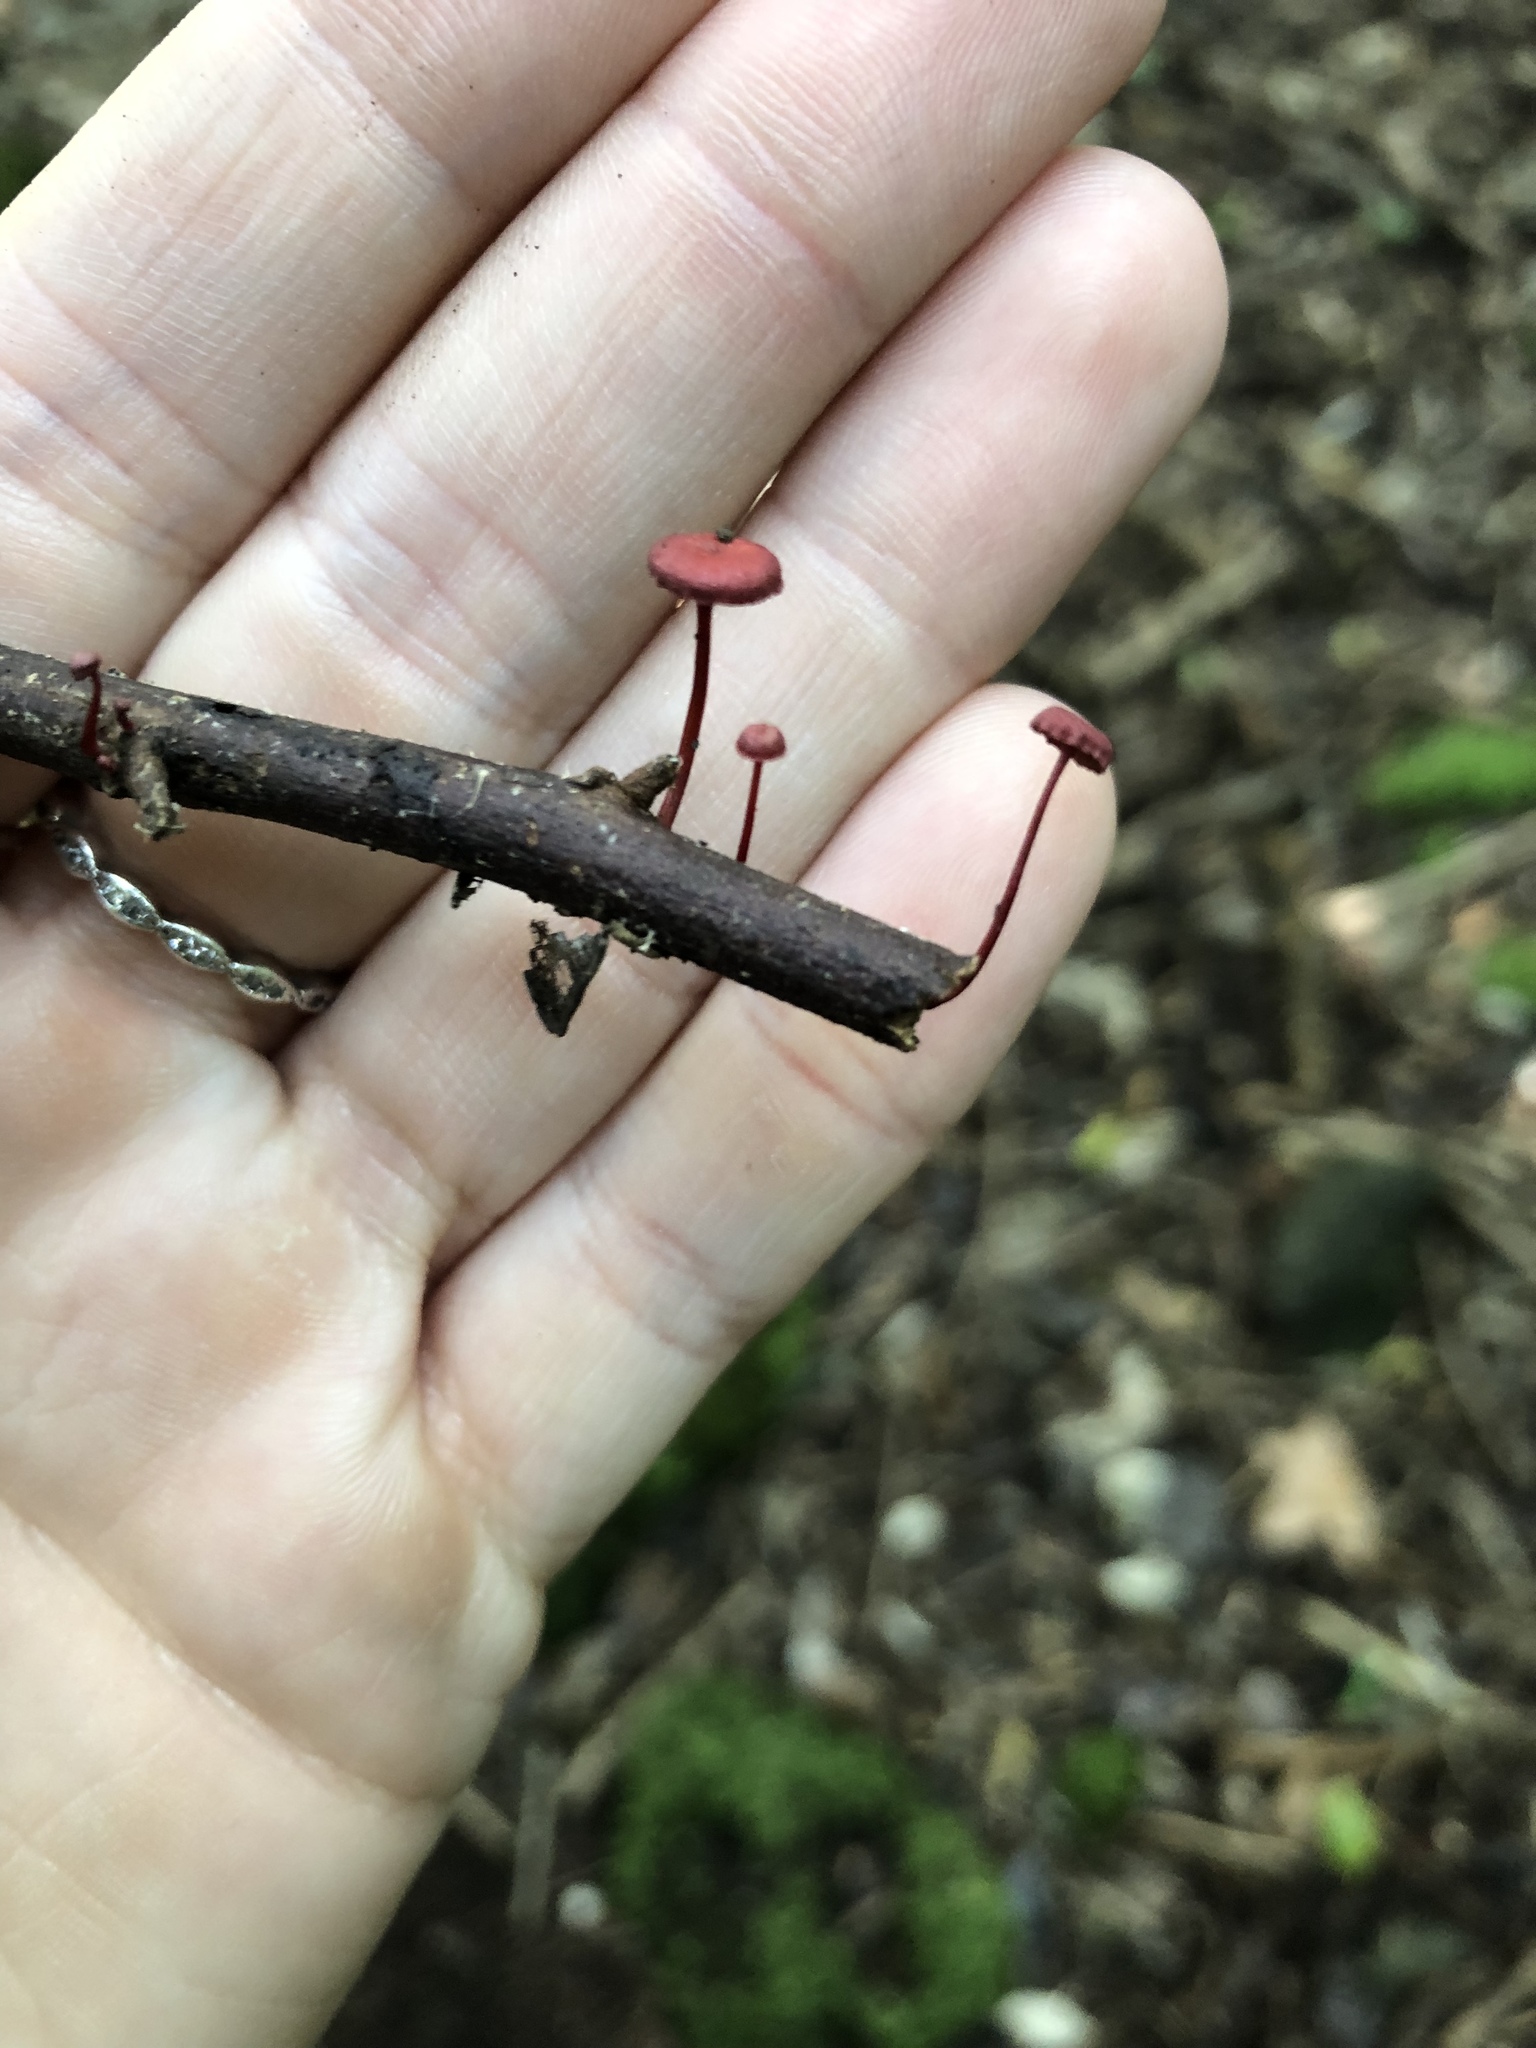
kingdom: Fungi
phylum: Basidiomycota
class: Agaricomycetes
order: Agaricales
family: Mycenaceae
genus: Cruentomycena
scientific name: Cruentomycena viscidocruenta
